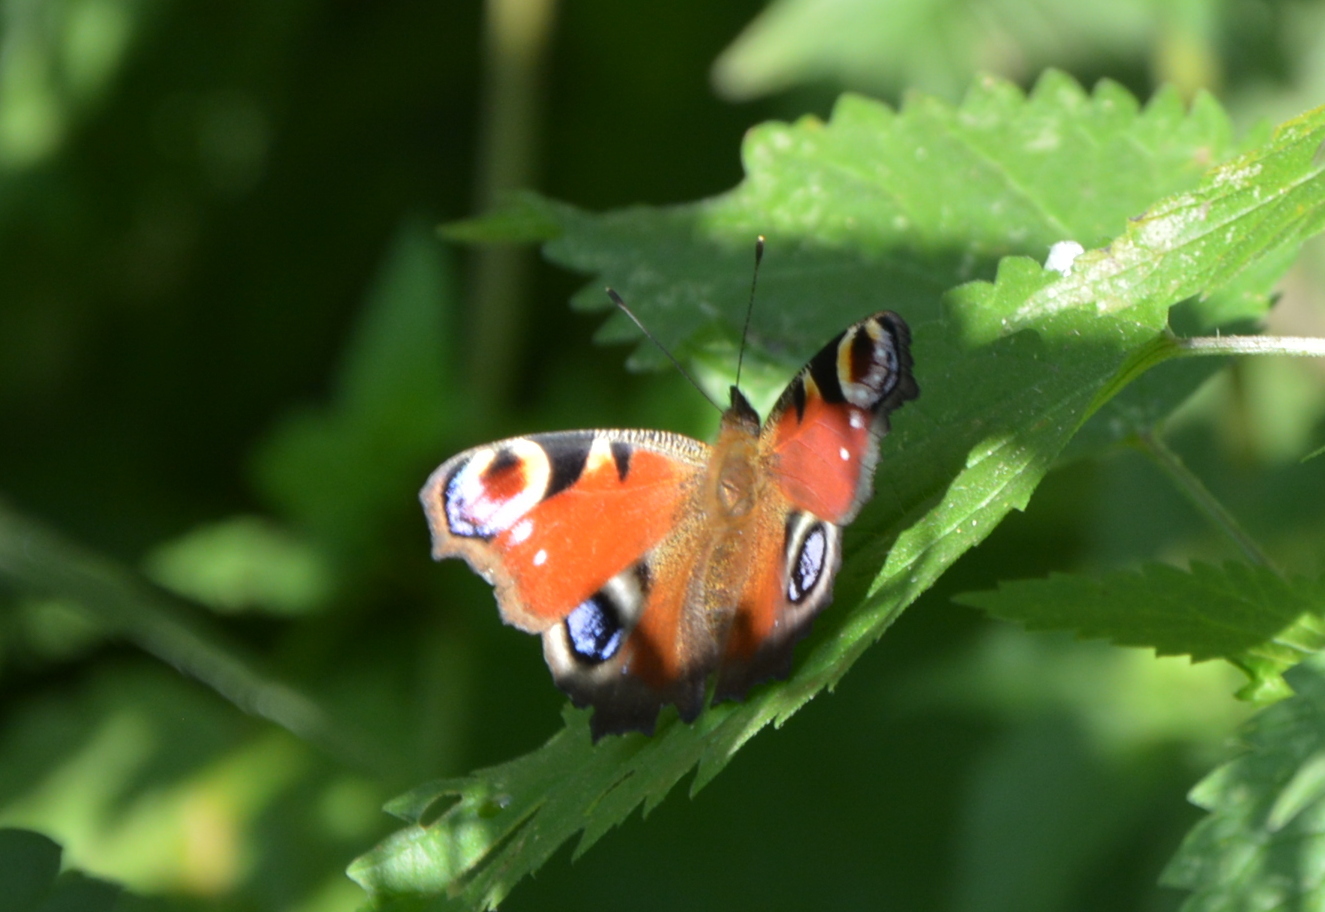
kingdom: Animalia
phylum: Arthropoda
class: Insecta
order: Lepidoptera
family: Nymphalidae
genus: Aglais
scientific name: Aglais io
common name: Peacock
